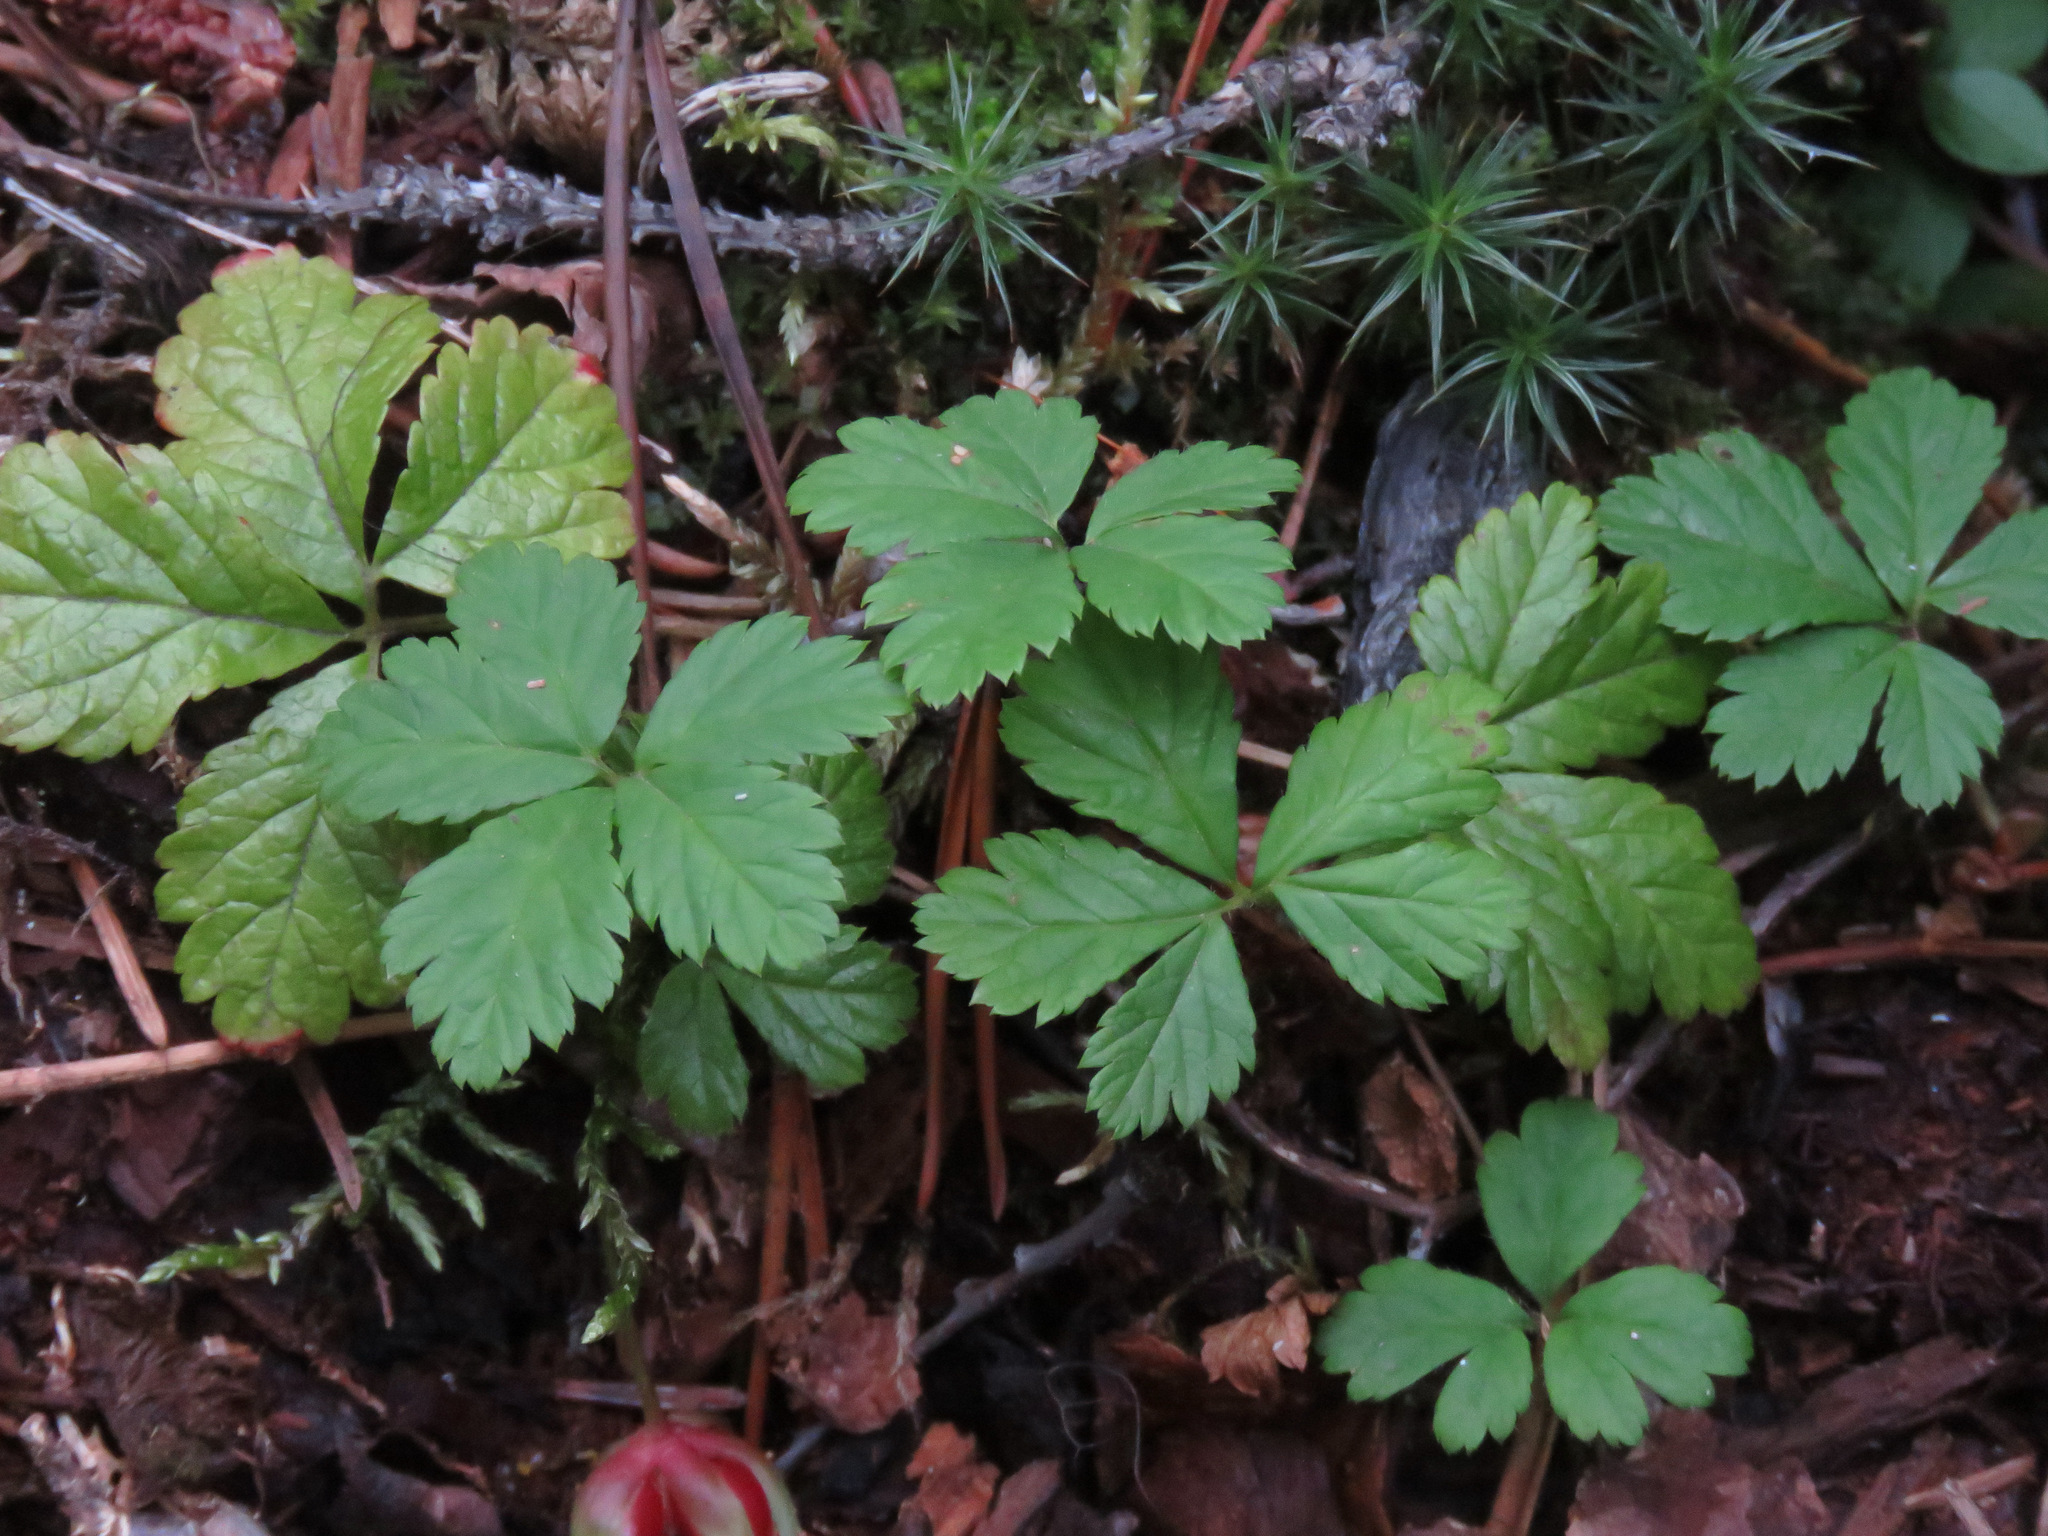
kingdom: Plantae
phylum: Tracheophyta
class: Magnoliopsida
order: Rosales
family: Rosaceae
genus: Rubus
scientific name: Rubus pedatus
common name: Creeping raspberry
